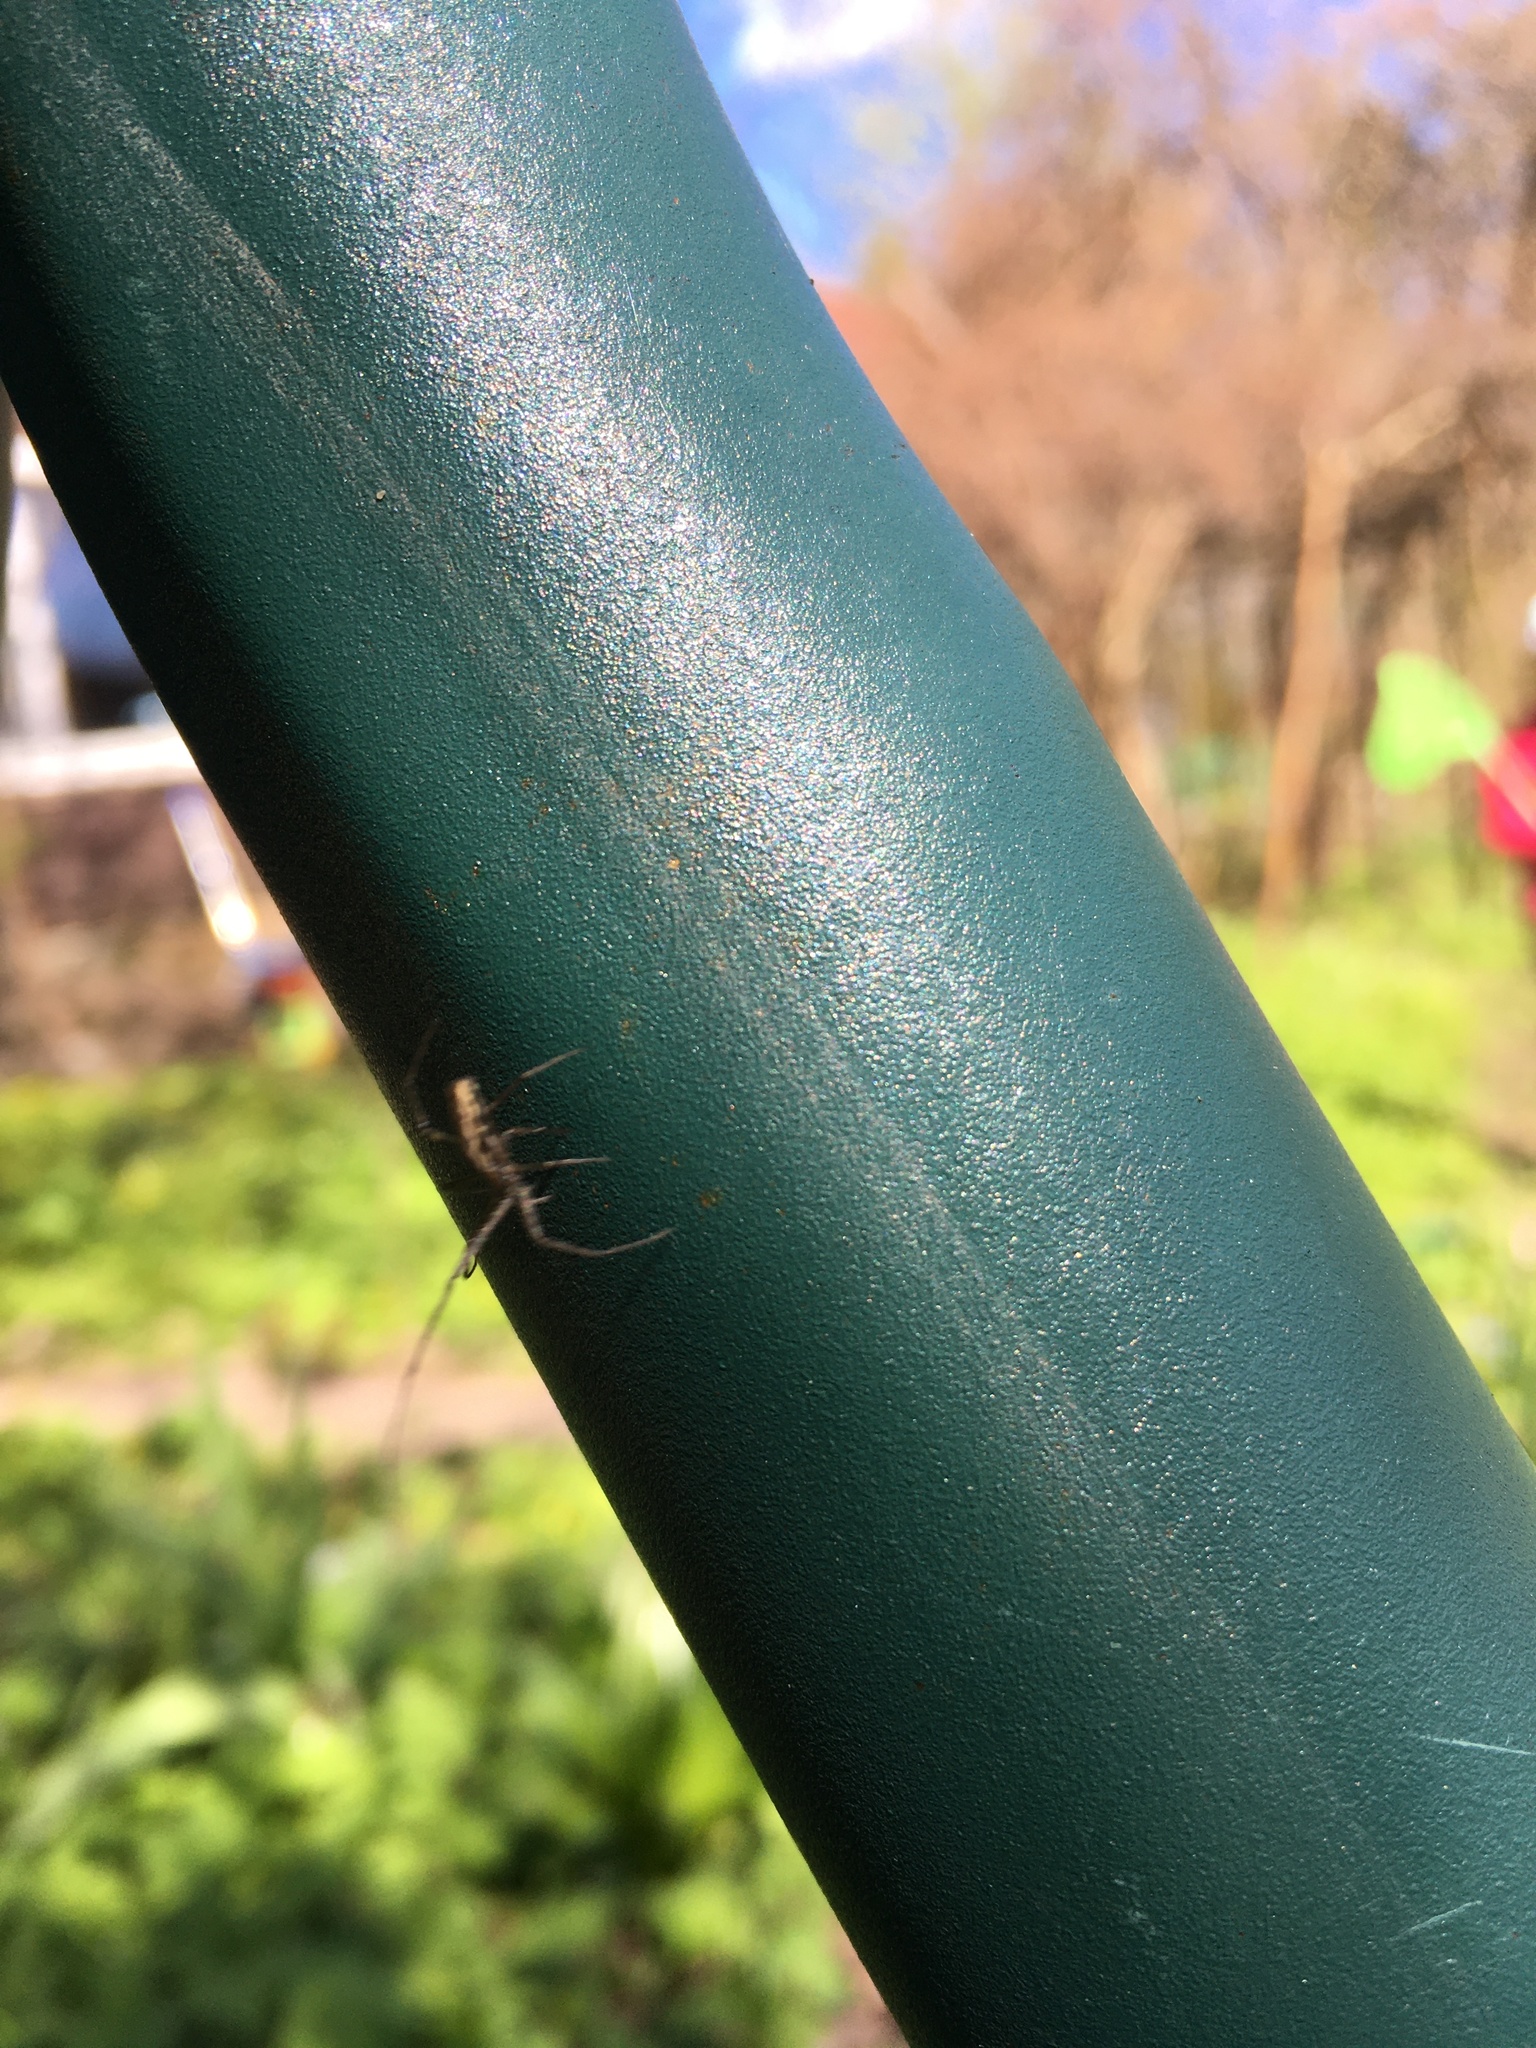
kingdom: Animalia
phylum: Arthropoda
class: Arachnida
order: Araneae
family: Tetragnathidae
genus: Tetragnatha
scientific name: Tetragnatha
